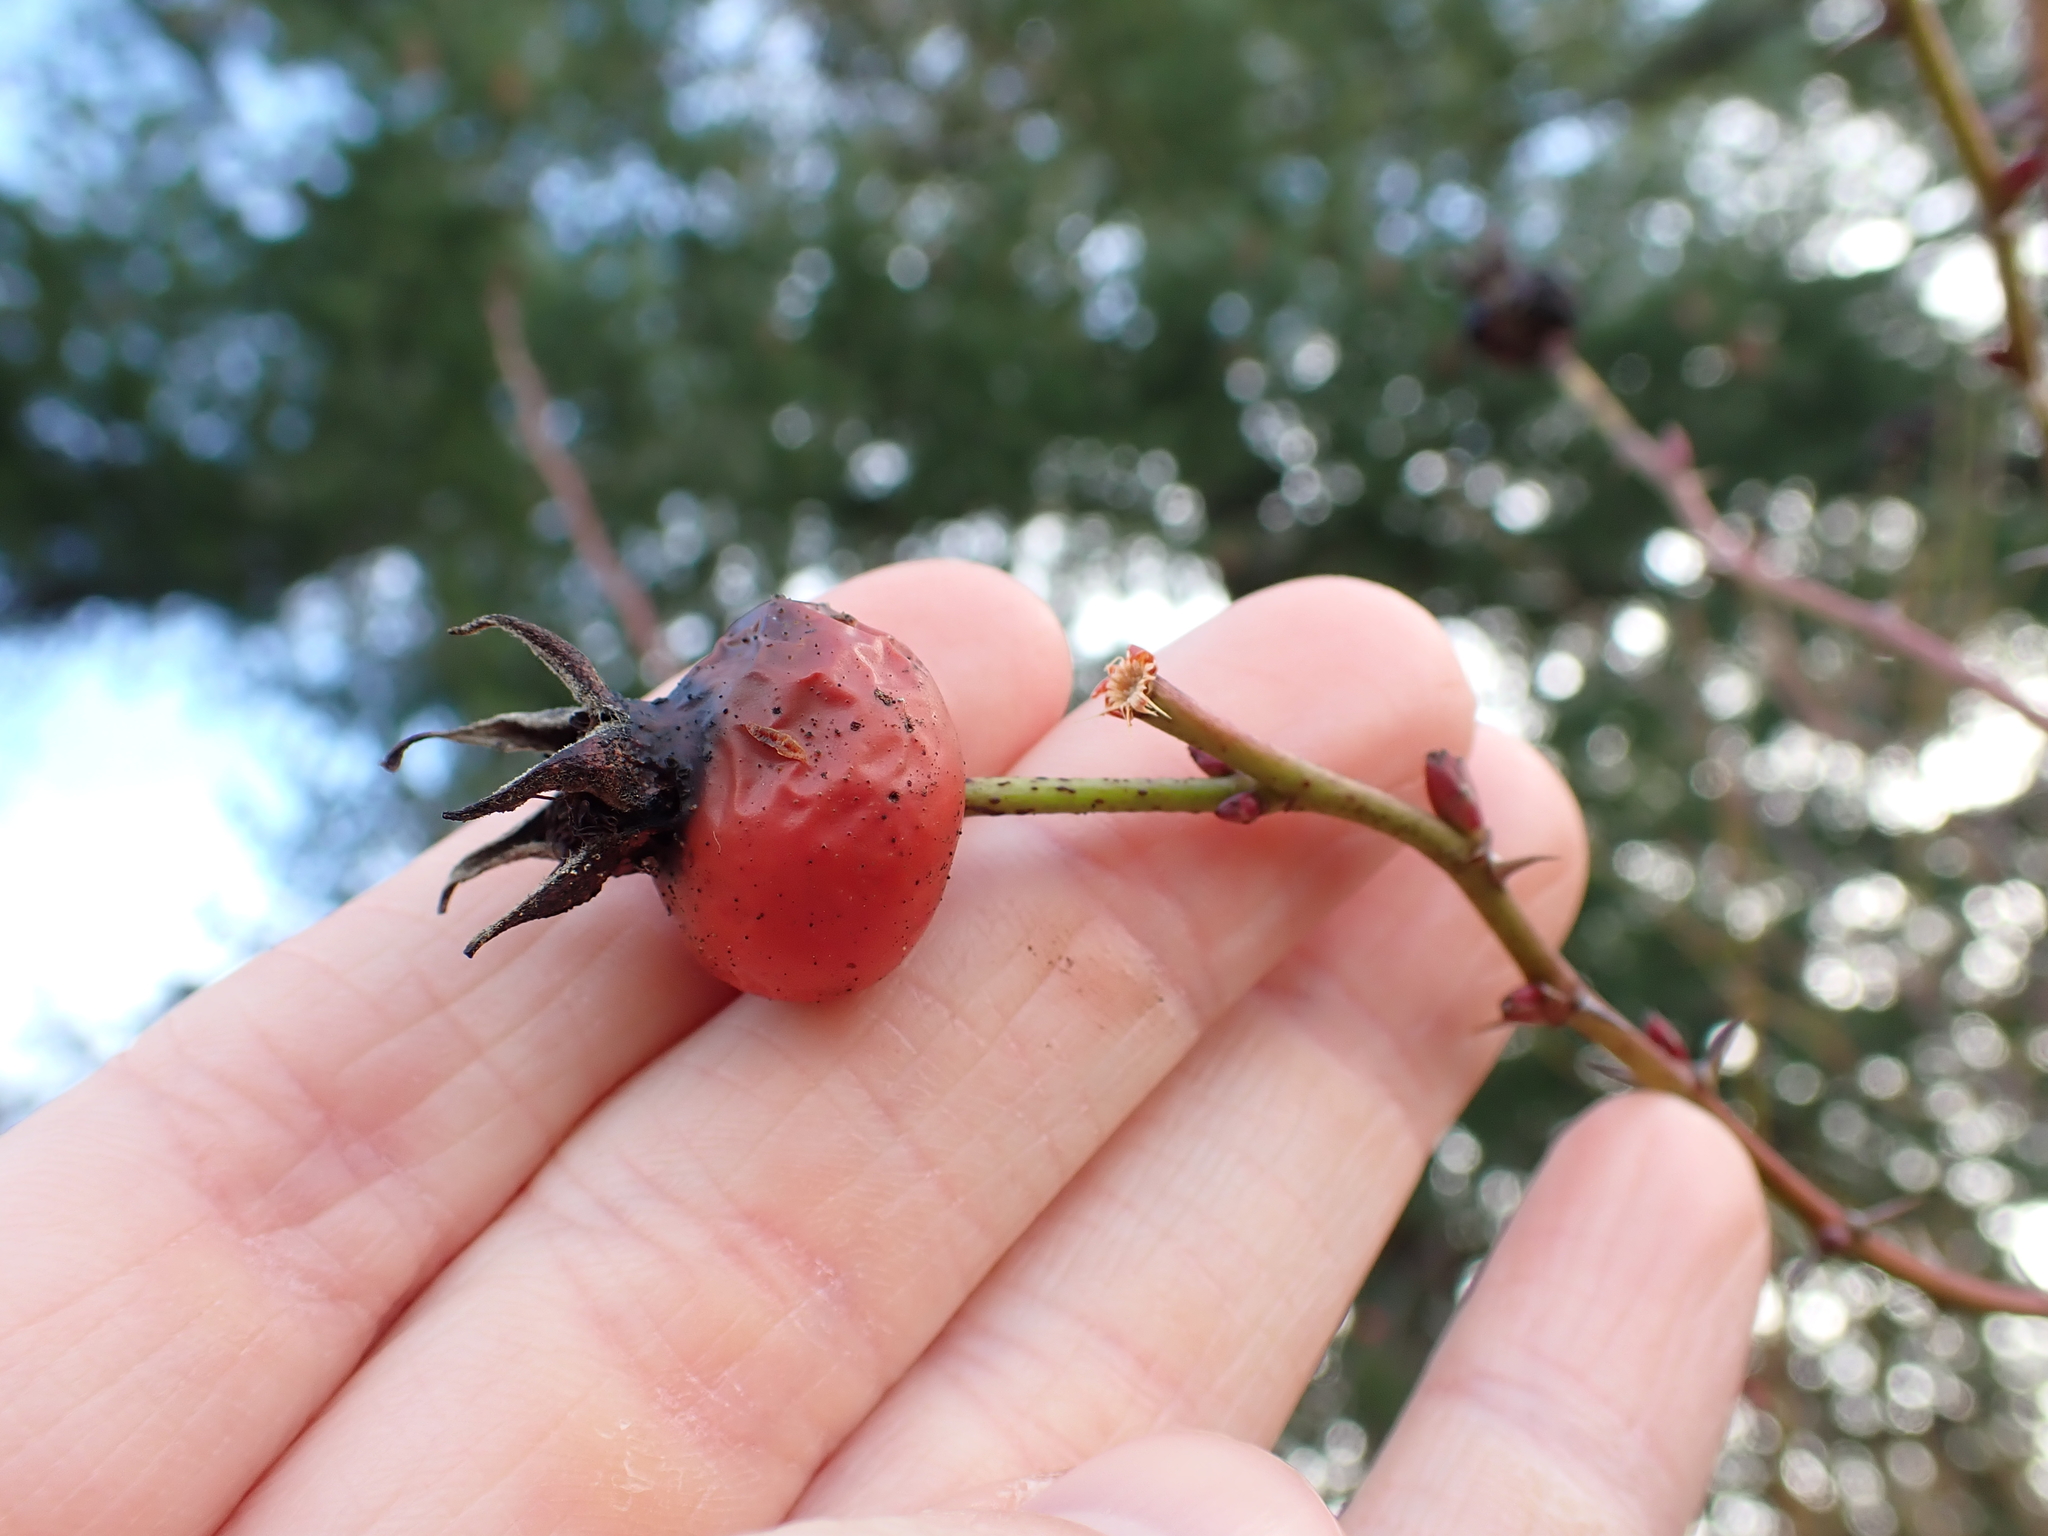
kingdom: Plantae
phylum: Tracheophyta
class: Magnoliopsida
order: Rosales
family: Rosaceae
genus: Rosa
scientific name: Rosa nutkana
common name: Nootka rose
